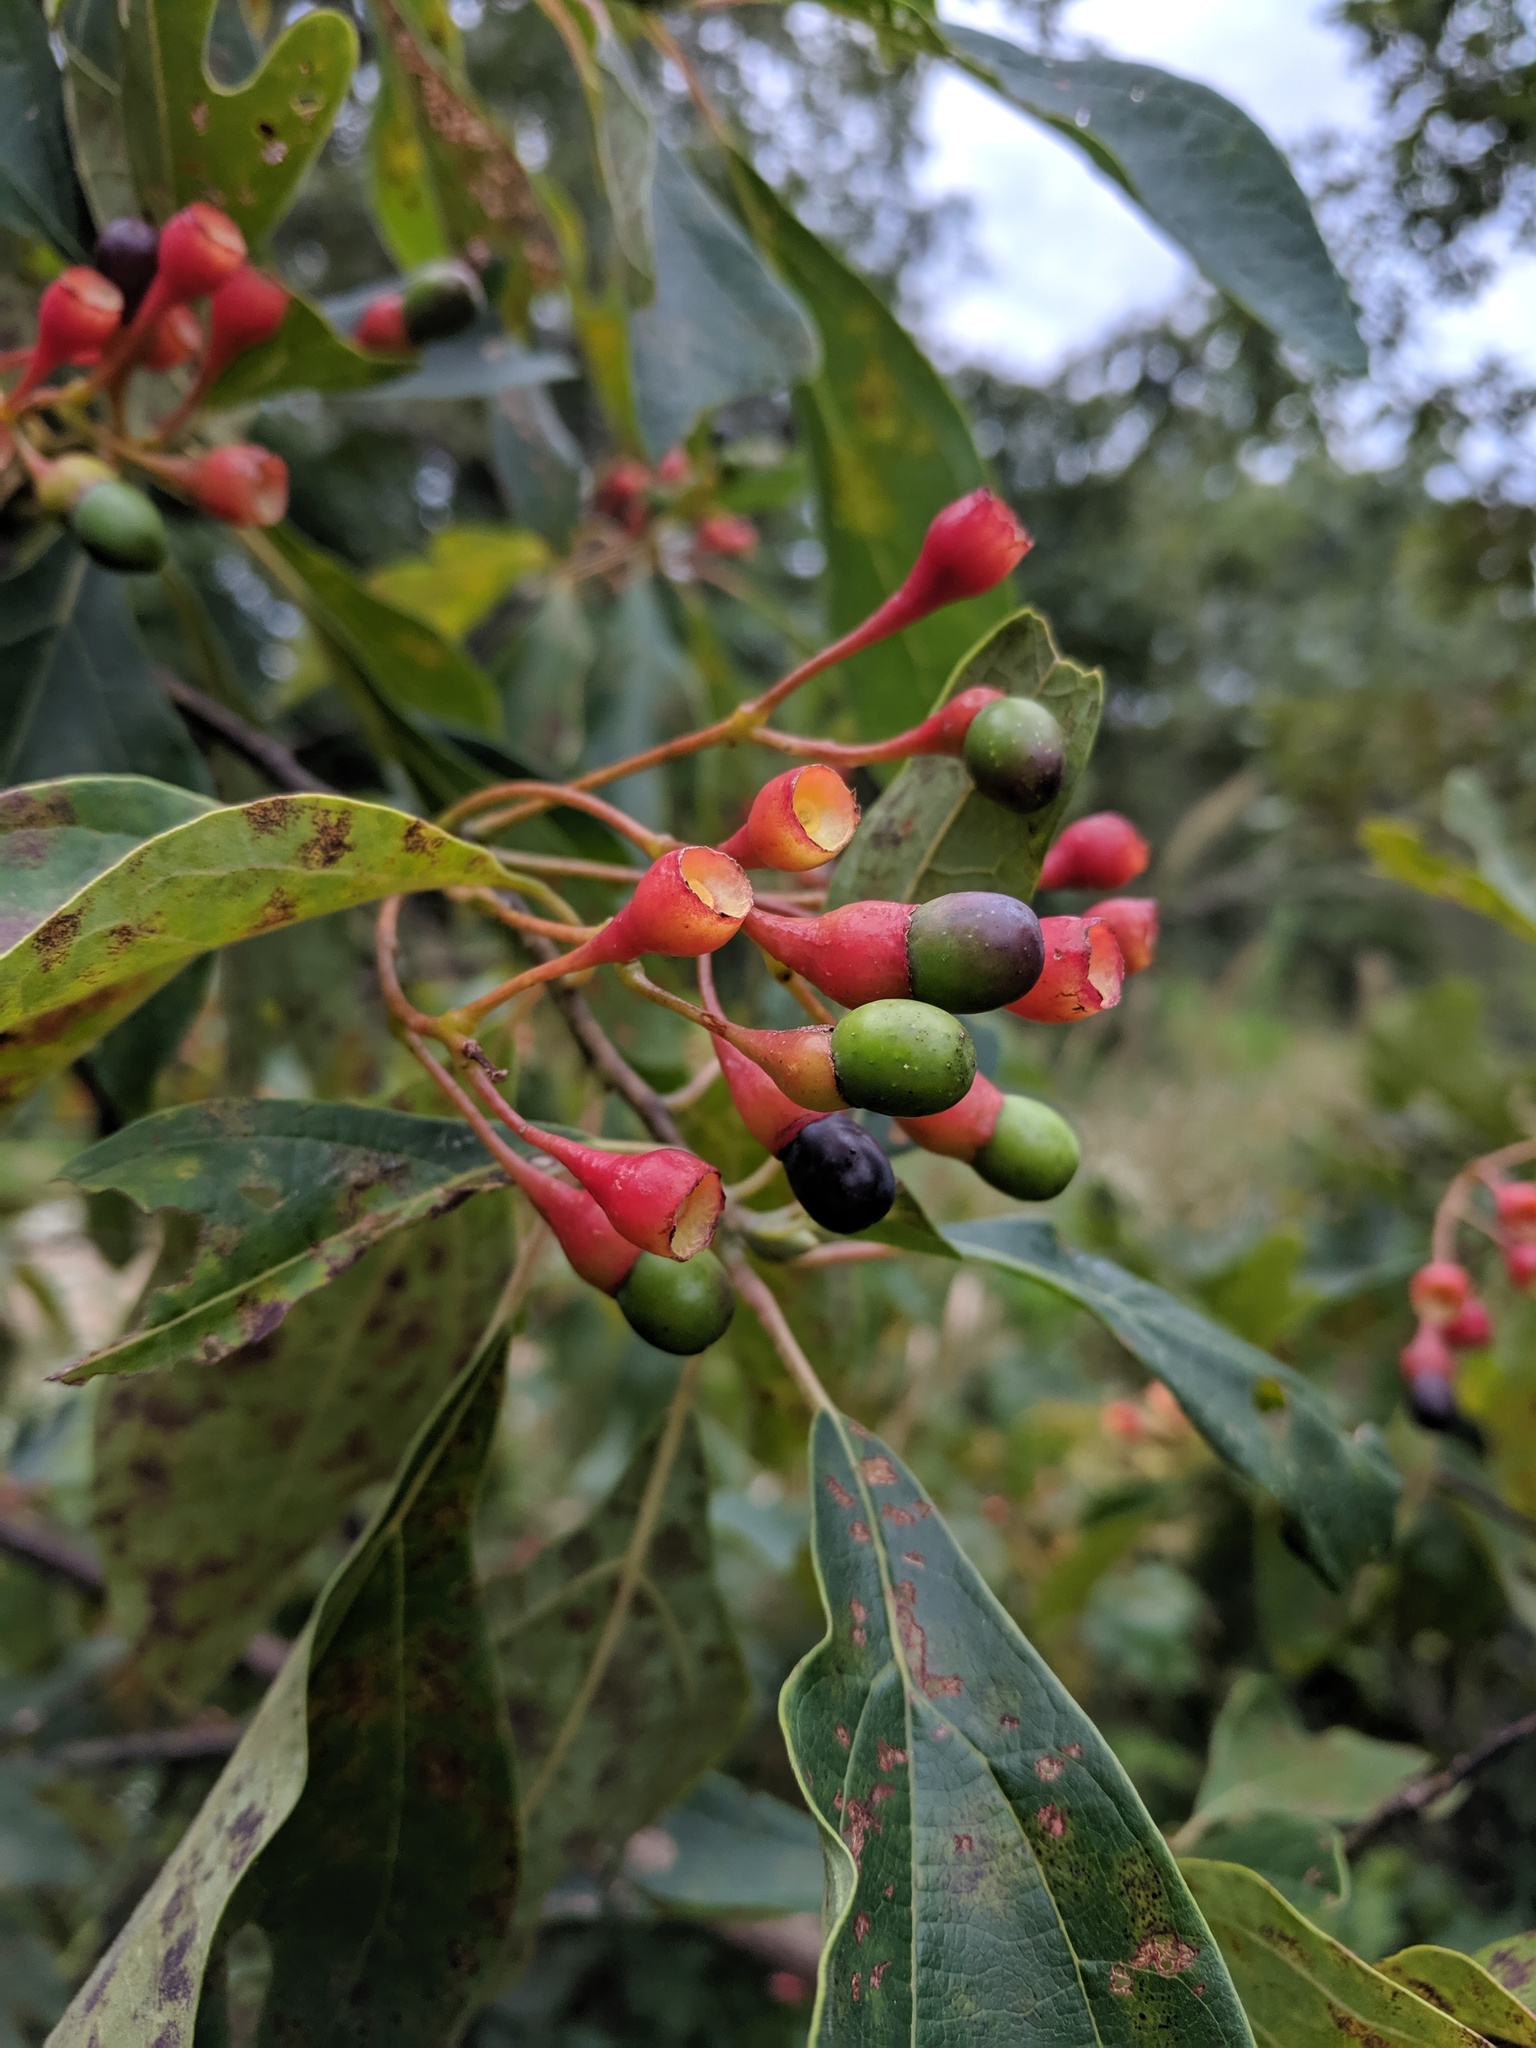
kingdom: Plantae
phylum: Tracheophyta
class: Magnoliopsida
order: Laurales
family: Lauraceae
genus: Sassafras
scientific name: Sassafras albidum
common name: Sassafras
